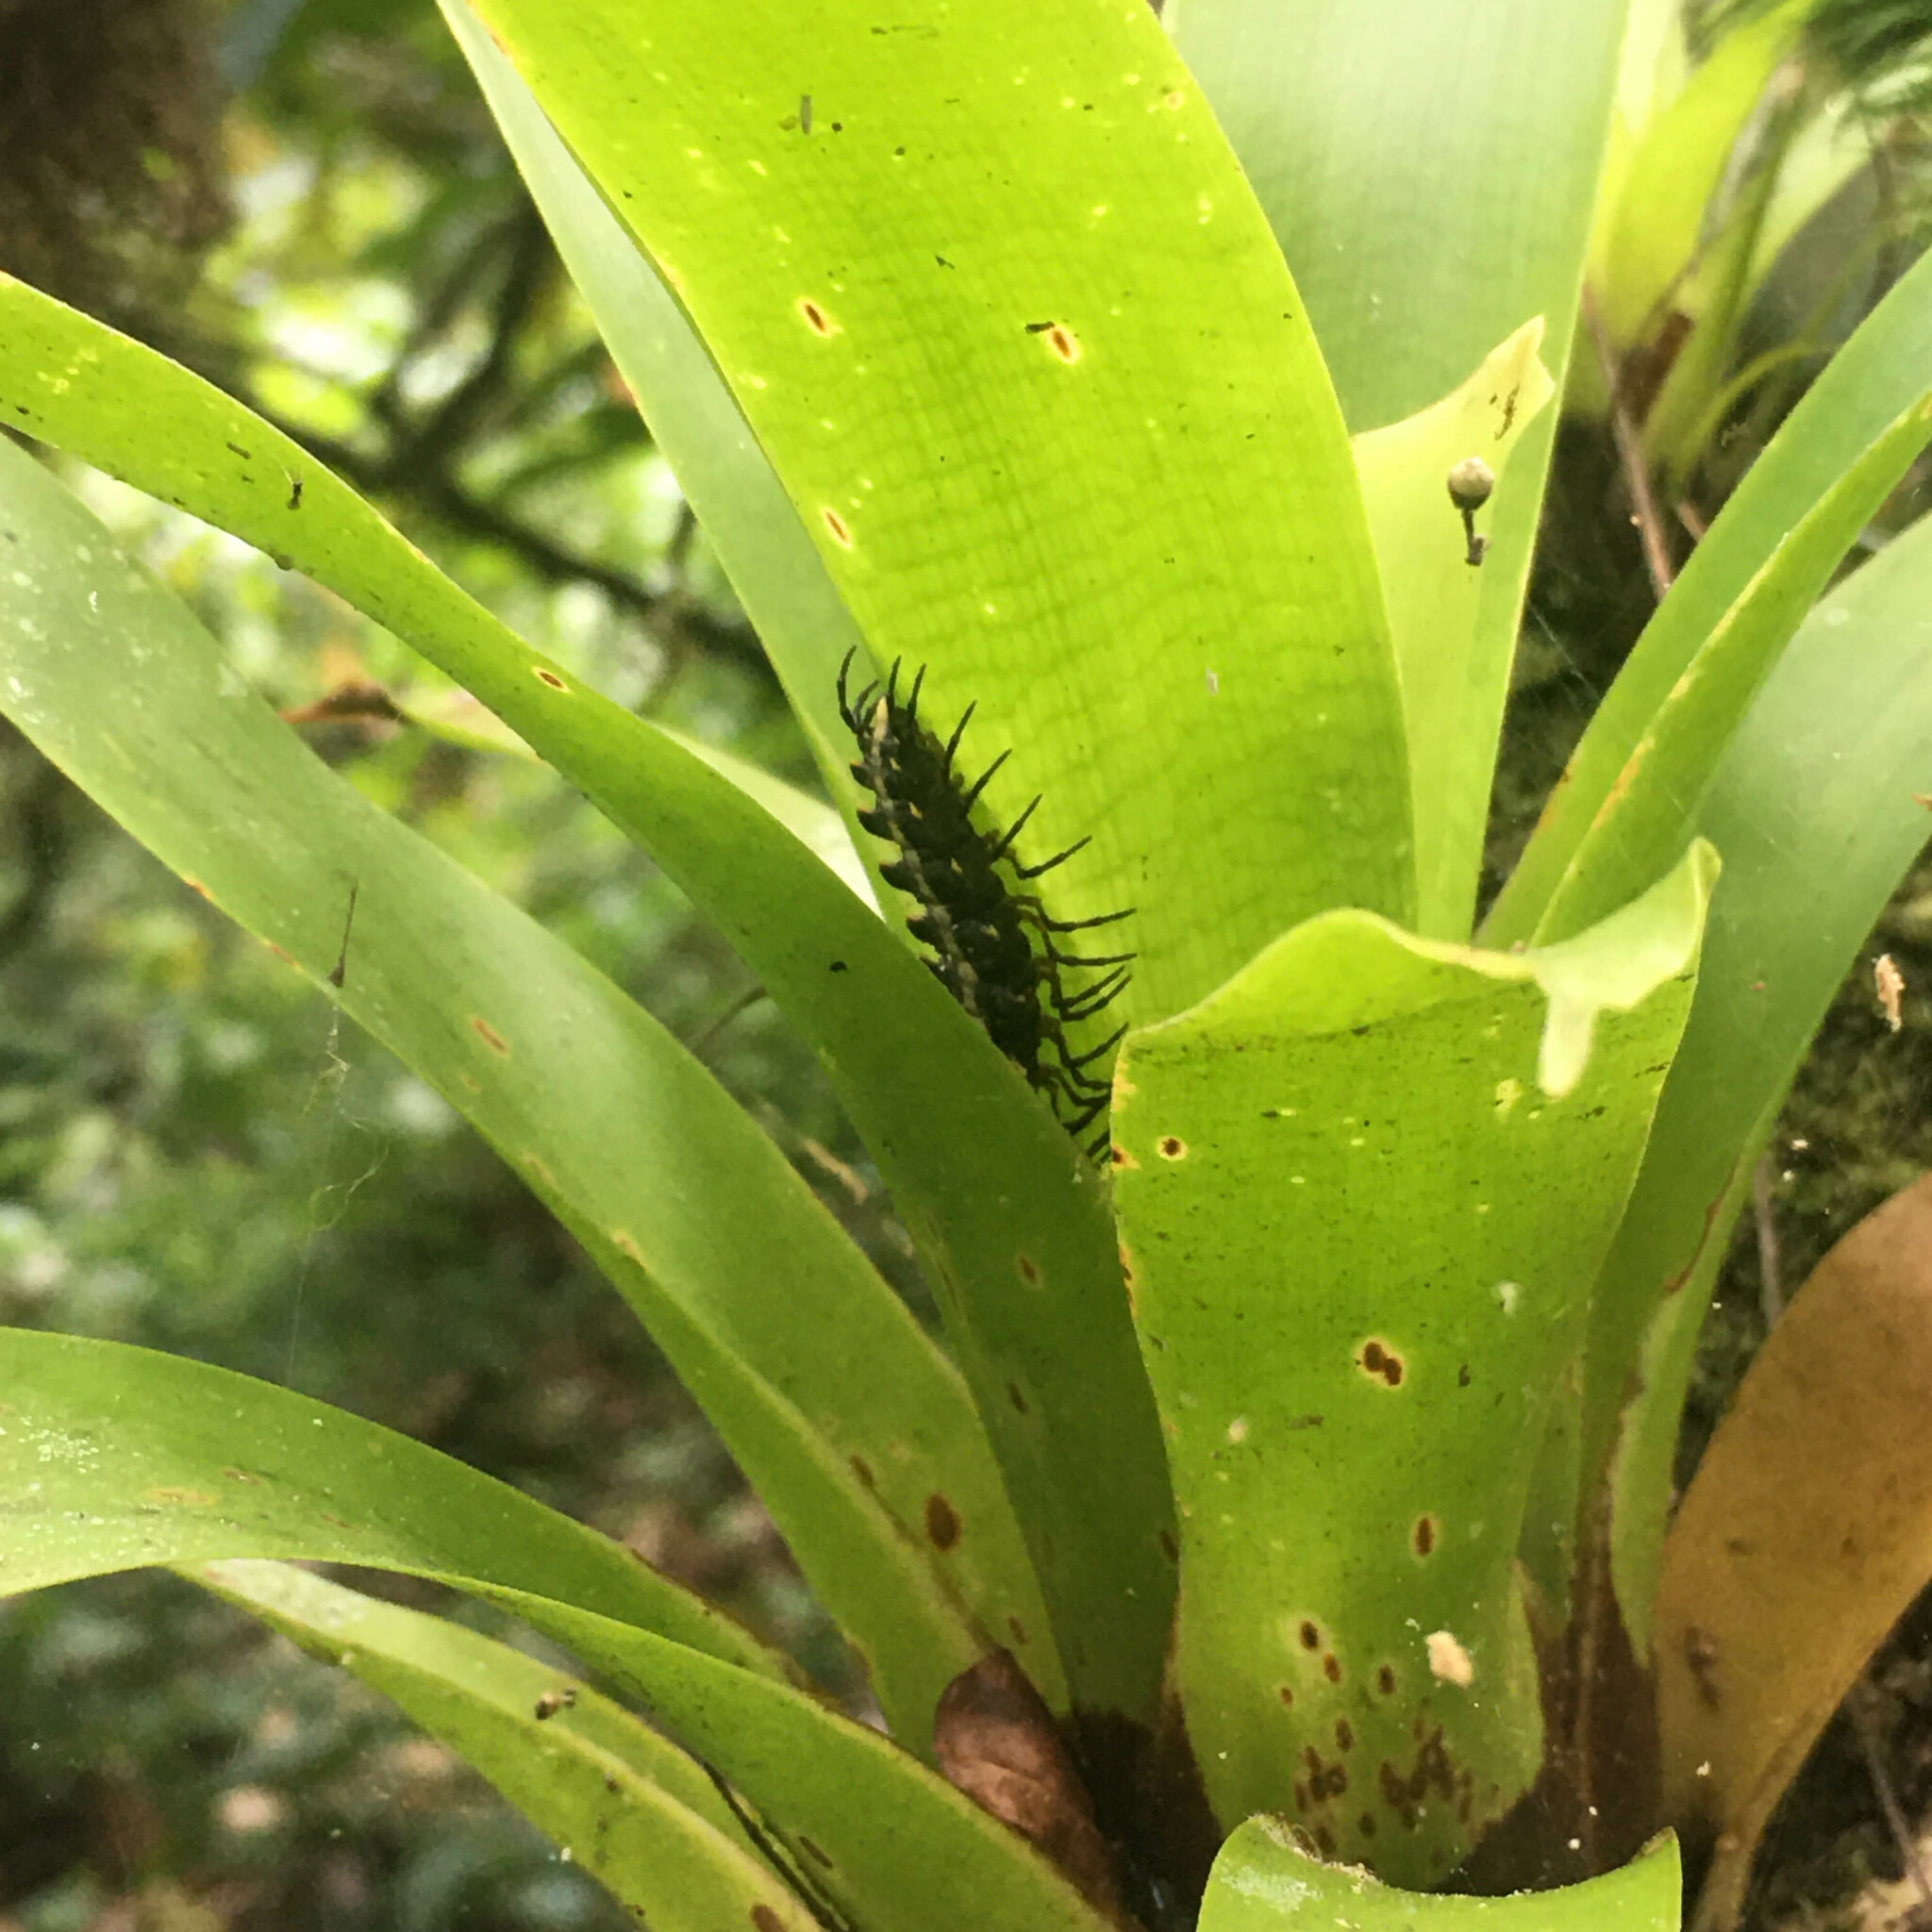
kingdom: Animalia
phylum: Arthropoda
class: Diplopoda
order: Polydesmida
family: Chelodesmidae
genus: Atlantodesmus
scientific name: Atlantodesmus pintoi
